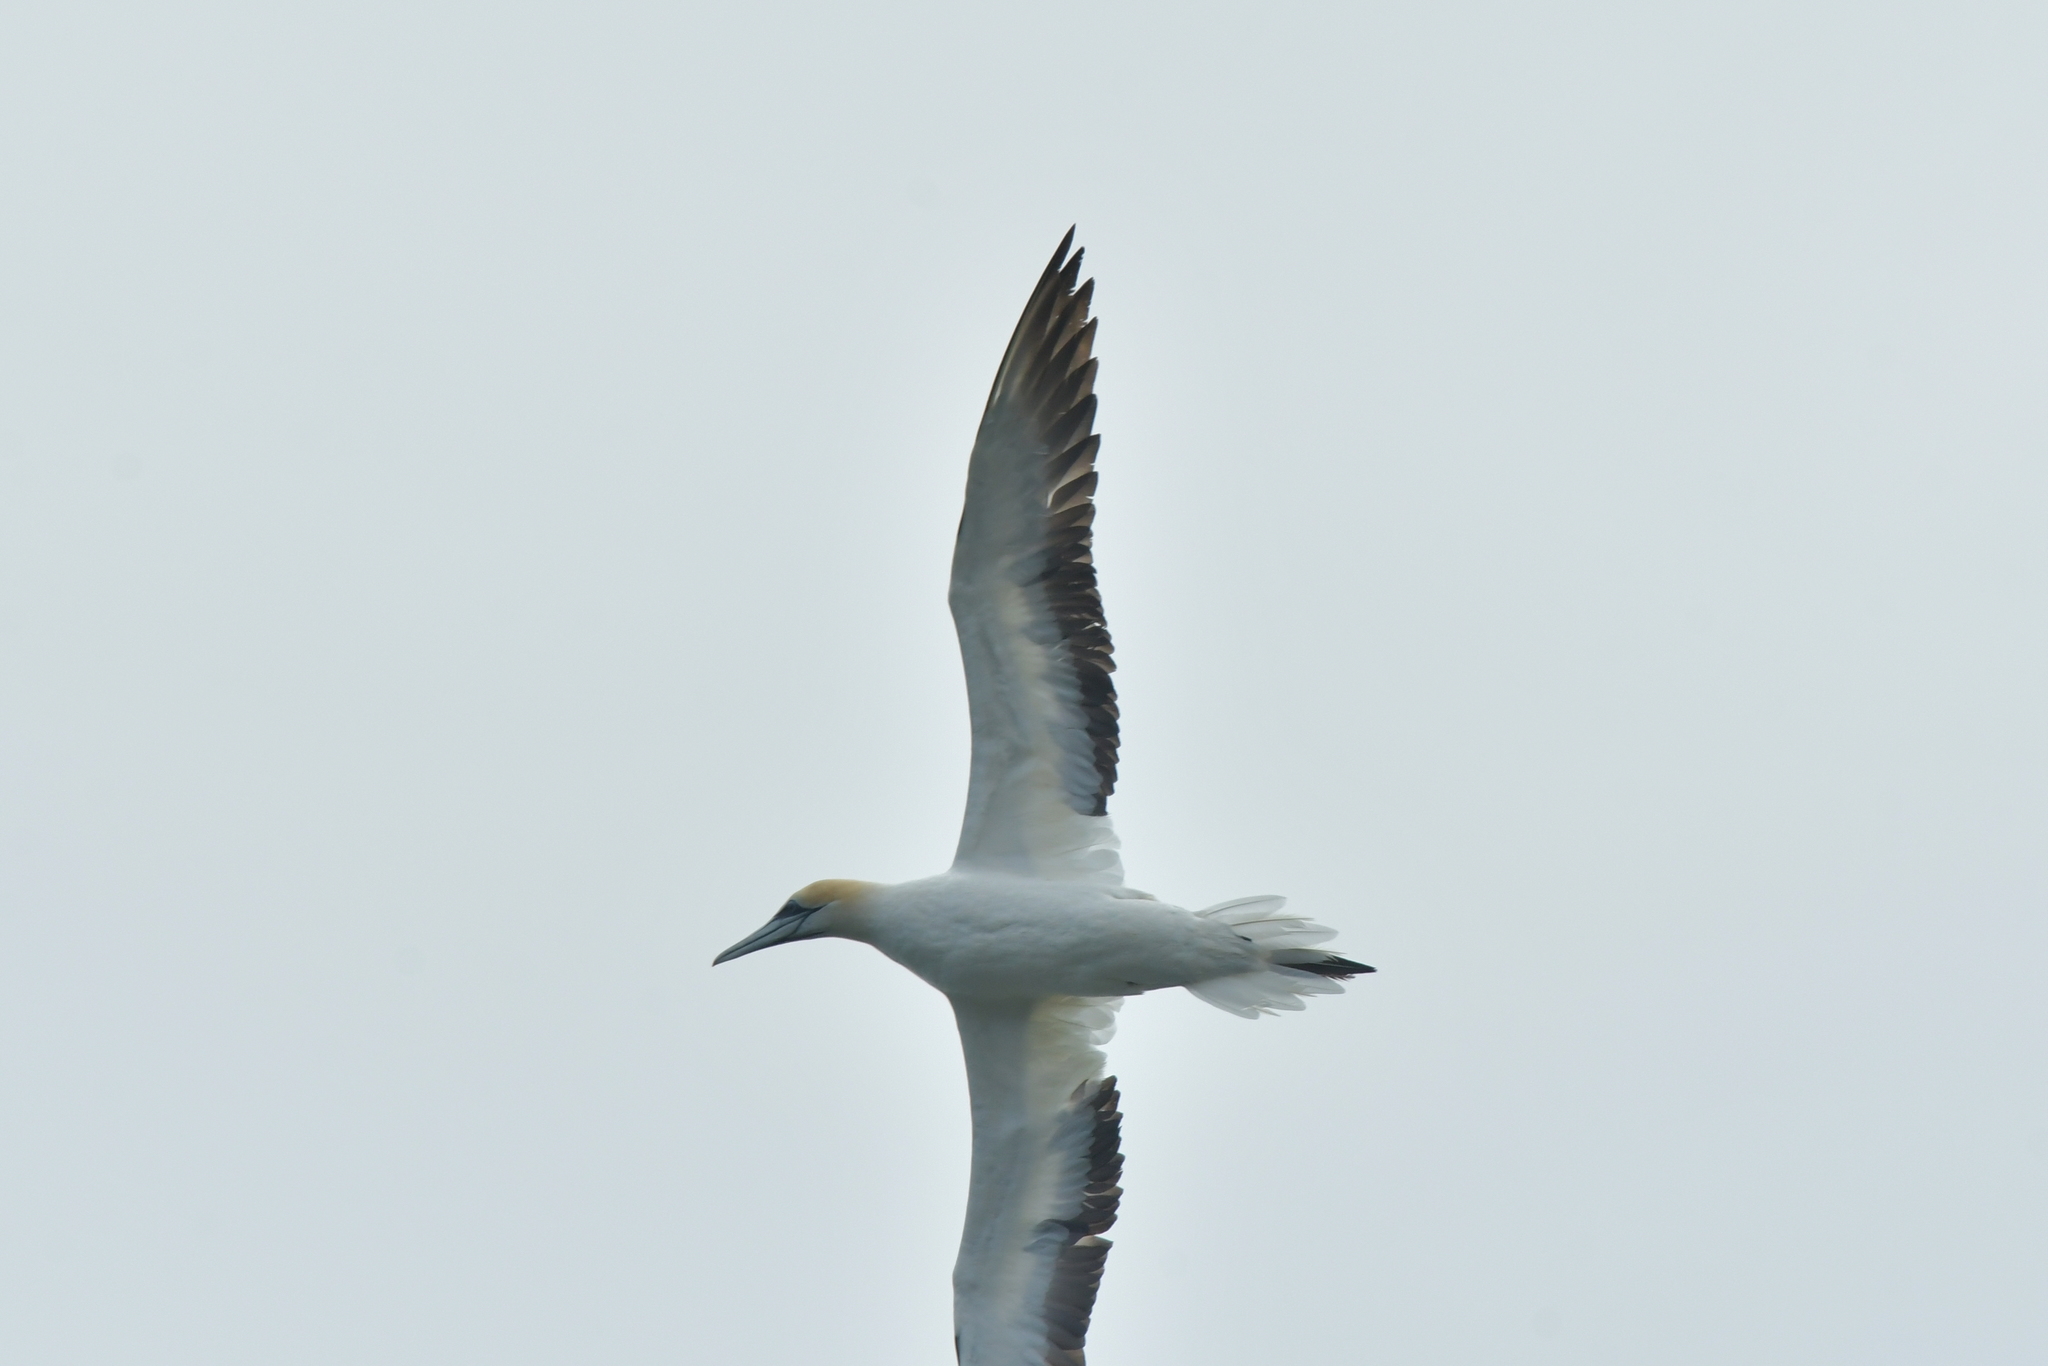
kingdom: Animalia
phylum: Chordata
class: Aves
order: Suliformes
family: Sulidae
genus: Morus
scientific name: Morus serrator
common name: Australasian gannet
